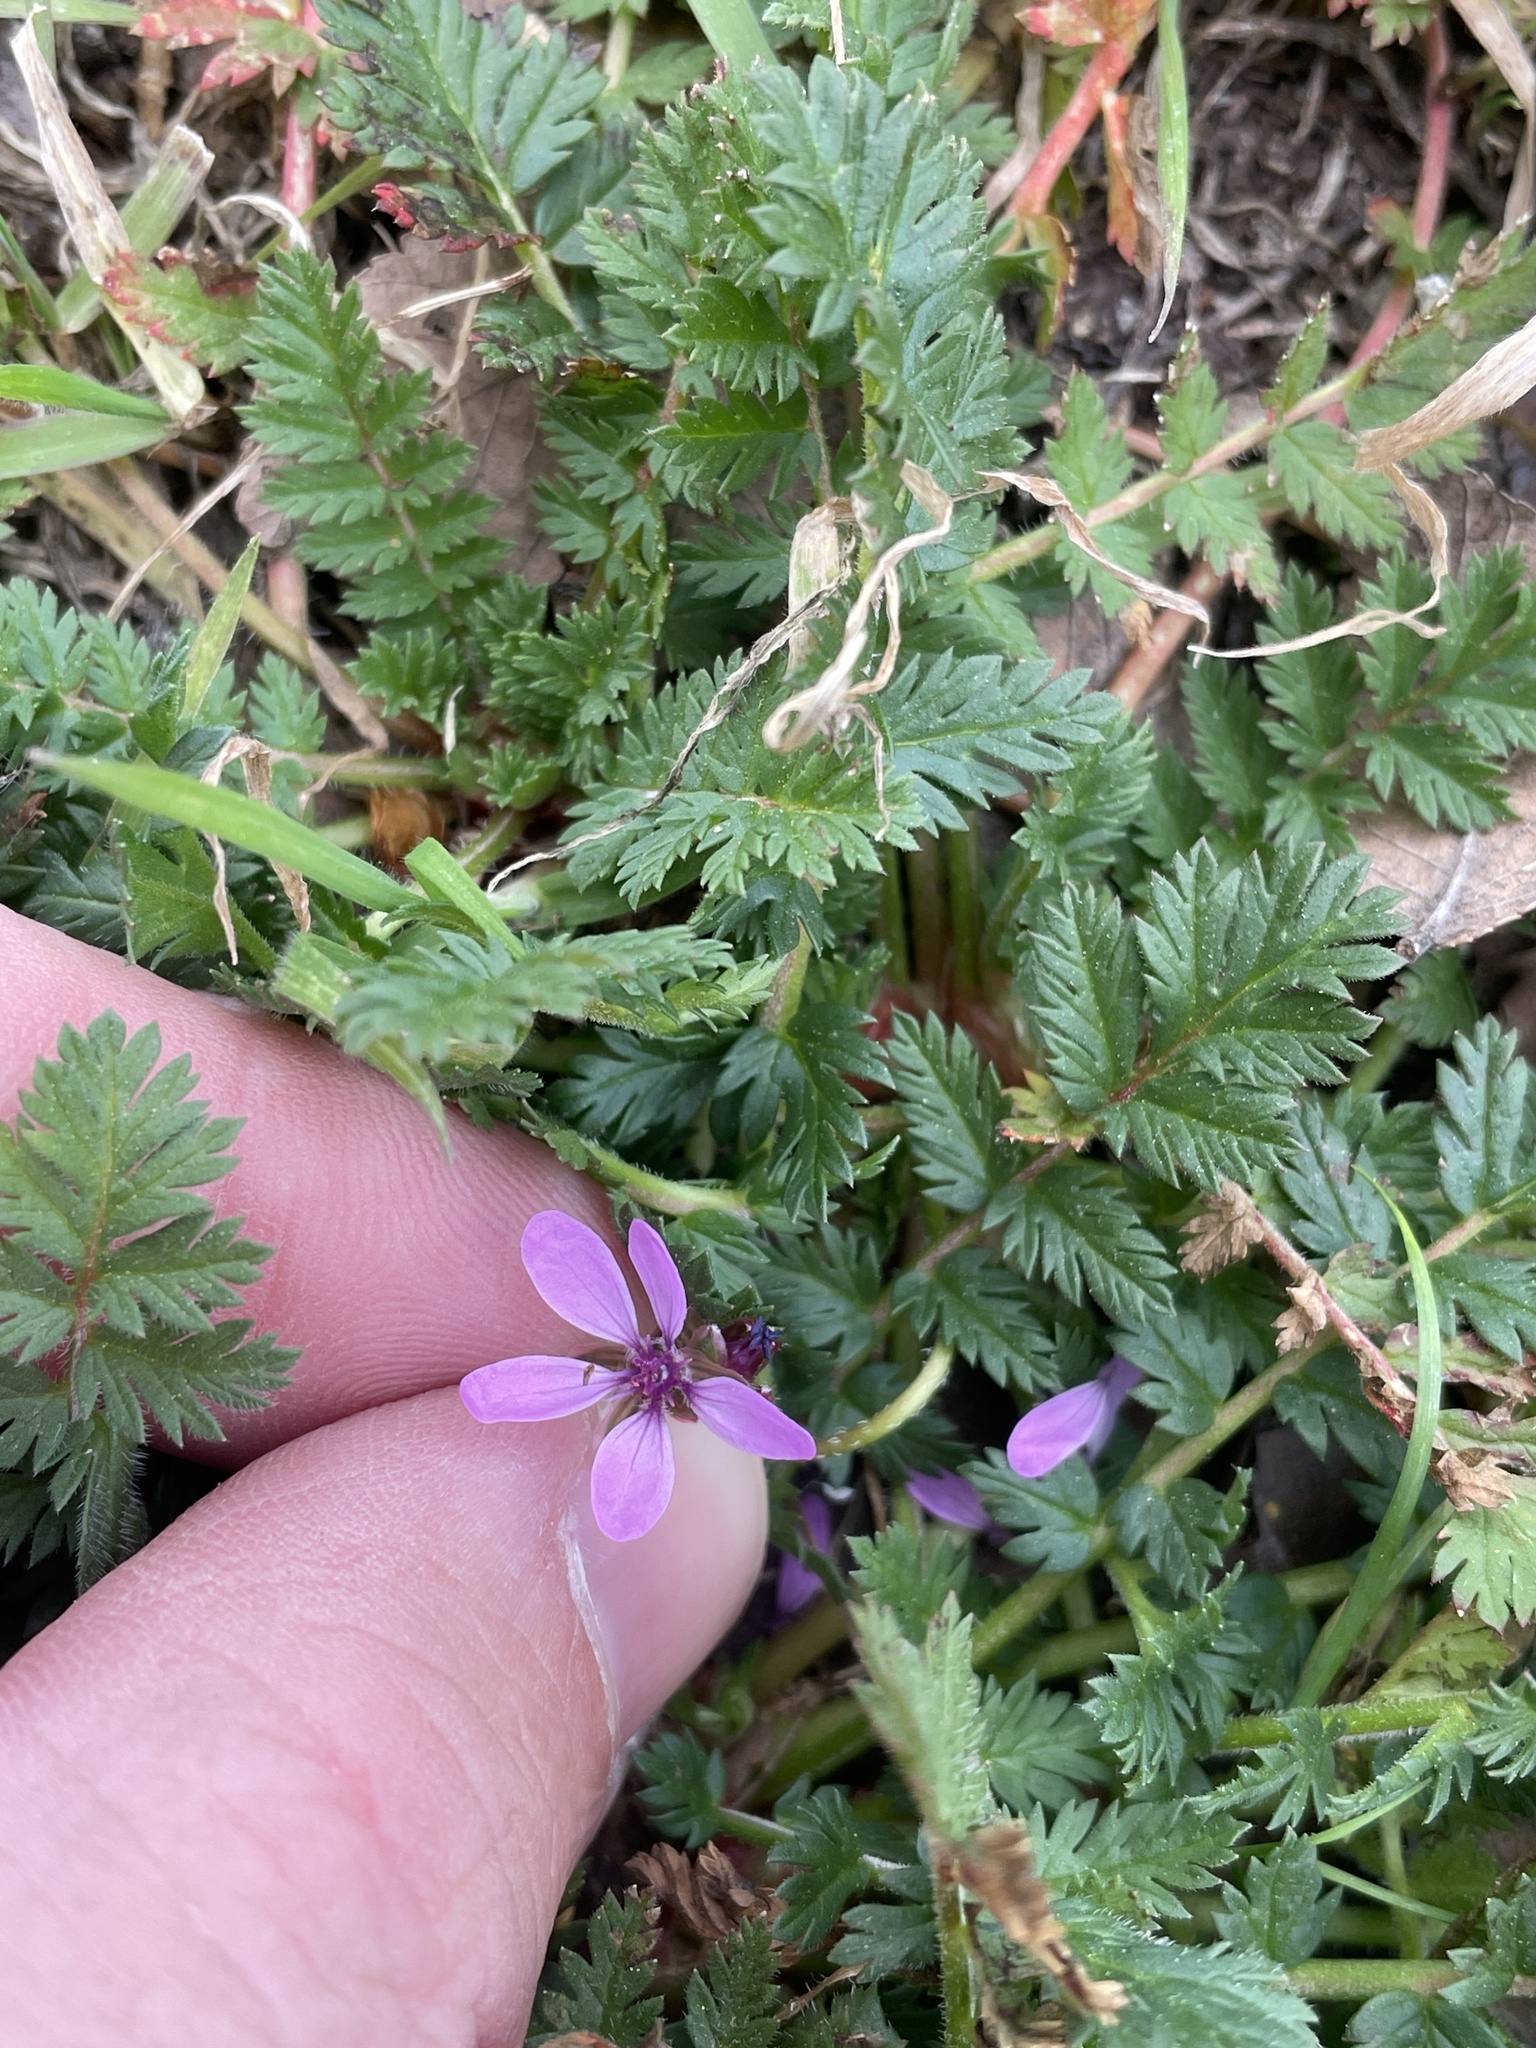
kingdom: Plantae
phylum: Tracheophyta
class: Magnoliopsida
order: Geraniales
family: Geraniaceae
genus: Erodium
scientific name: Erodium cicutarium
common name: Common stork's-bill
